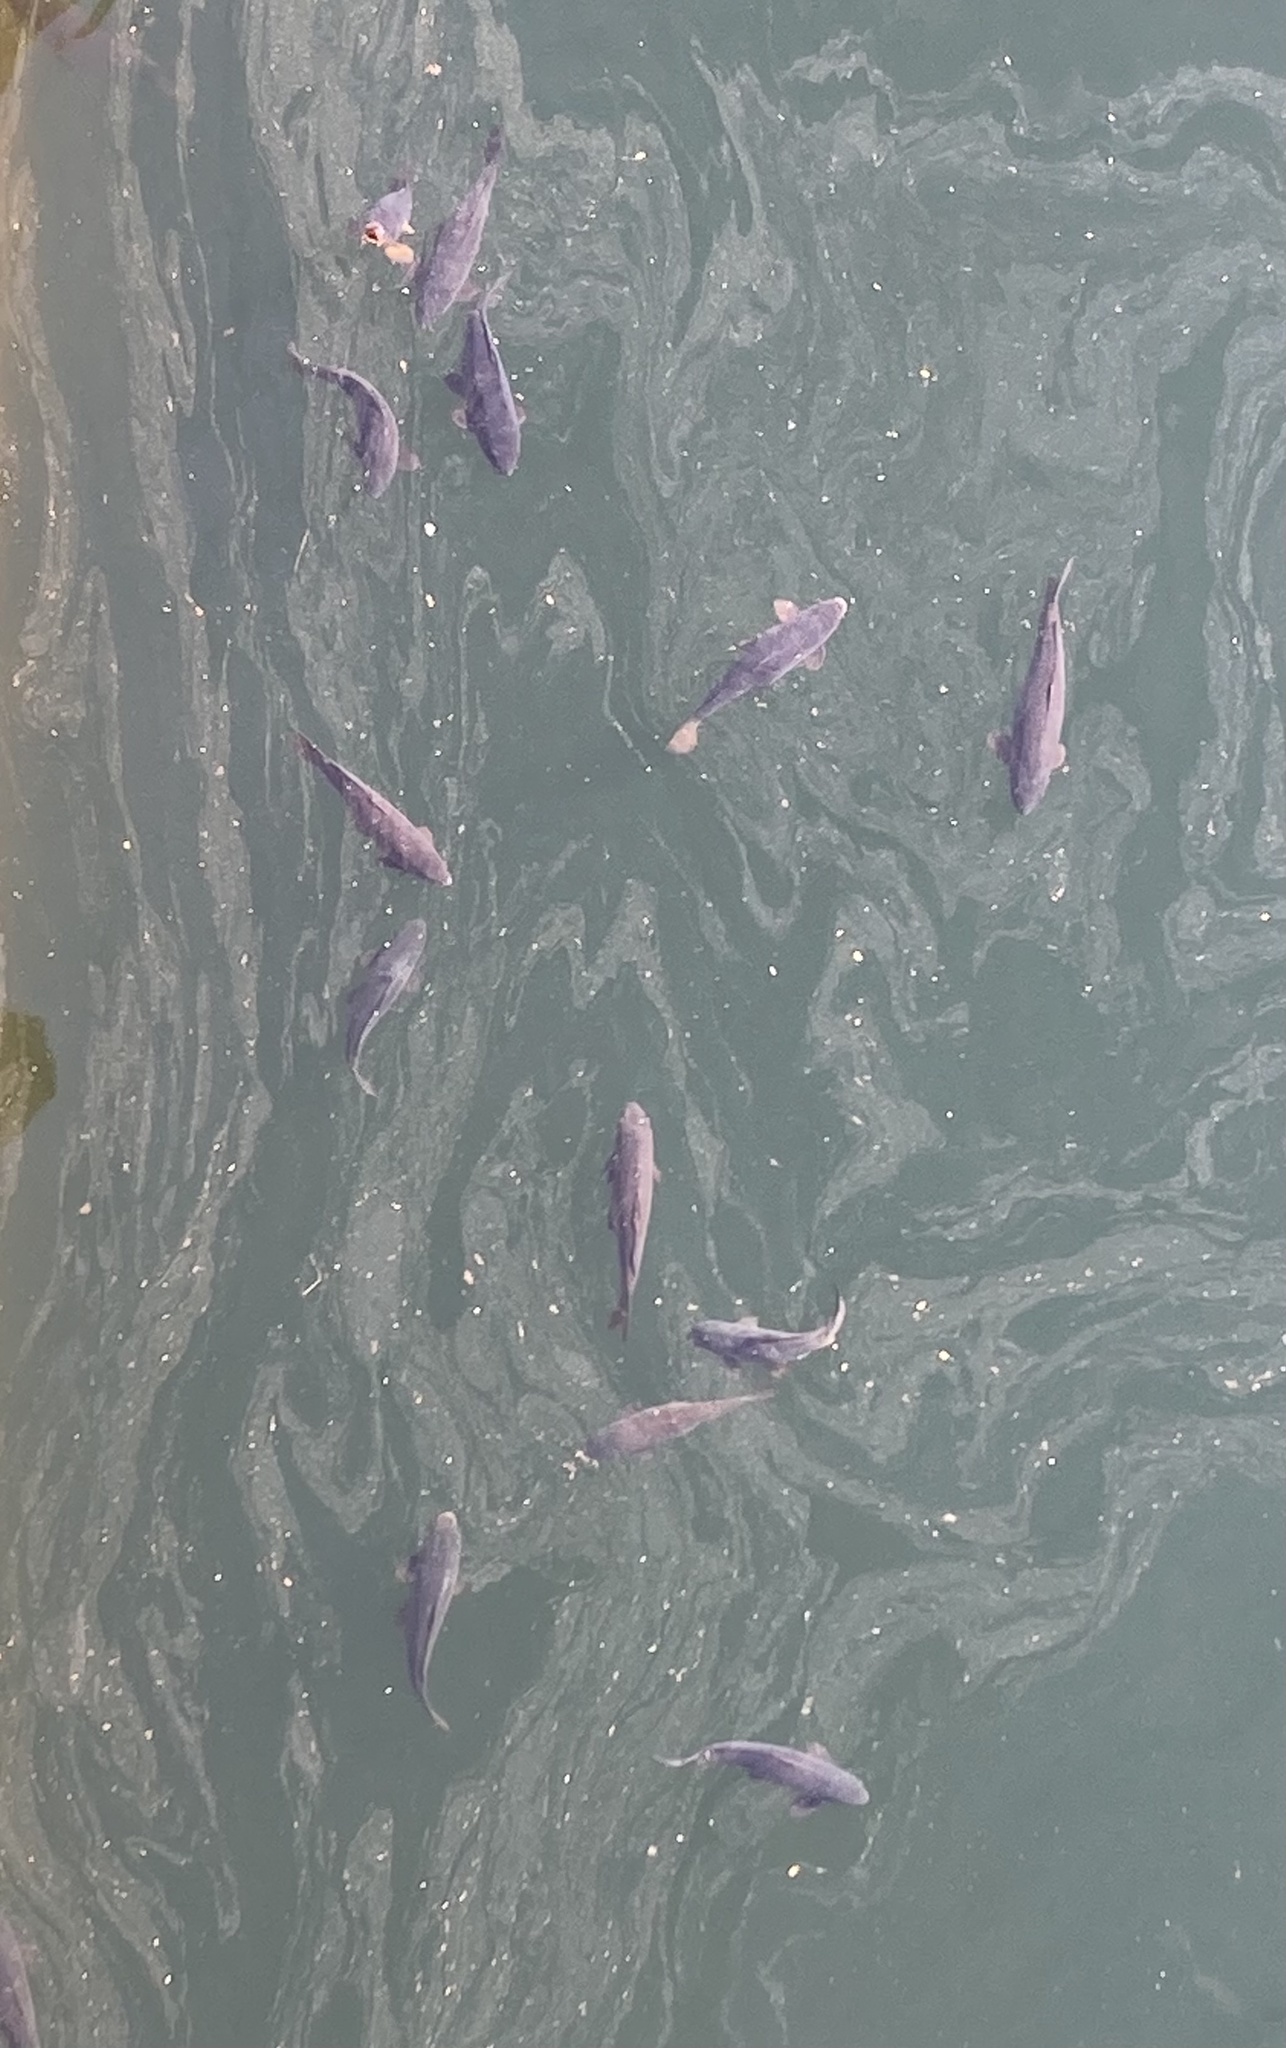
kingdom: Animalia
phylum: Chordata
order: Cypriniformes
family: Cyprinidae
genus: Cyprinus
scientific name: Cyprinus carpio
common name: Common carp
